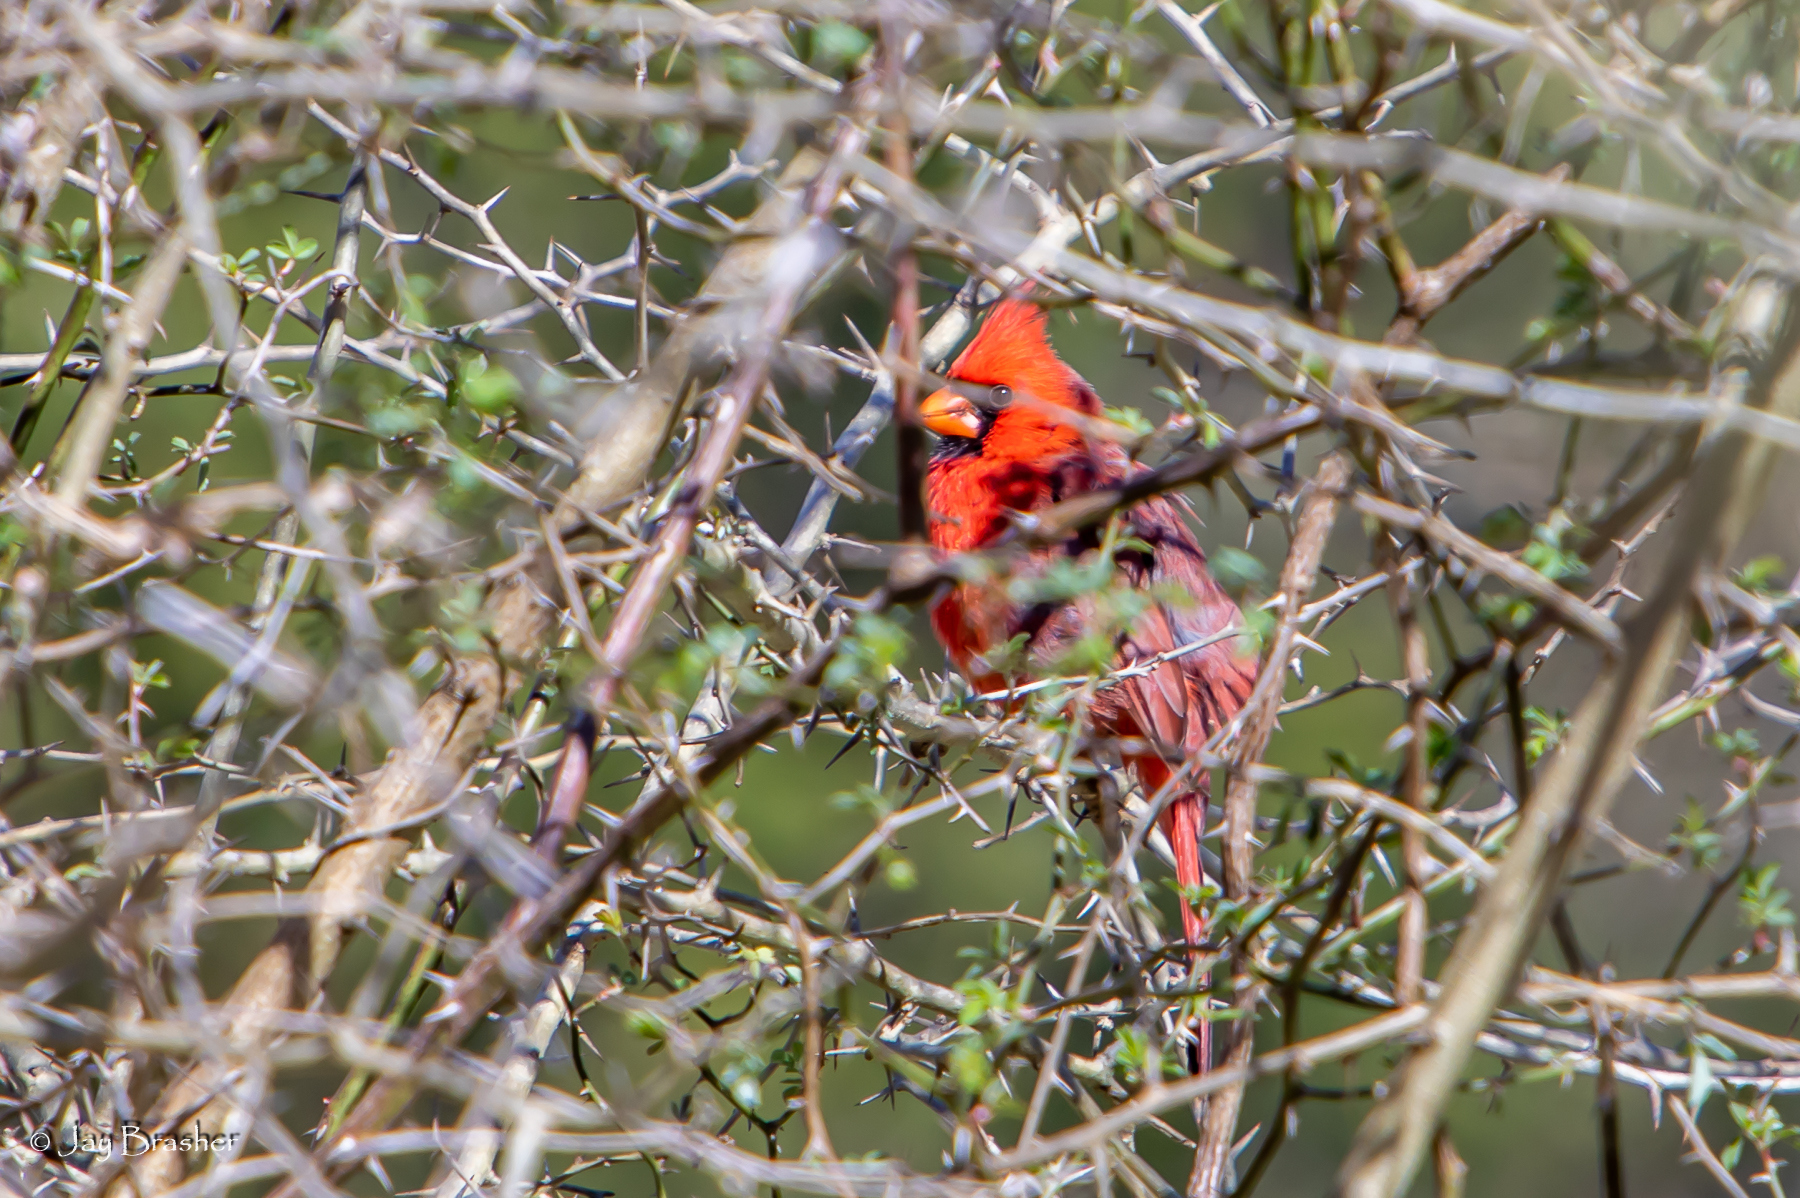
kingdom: Animalia
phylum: Chordata
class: Aves
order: Passeriformes
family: Cardinalidae
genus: Cardinalis
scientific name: Cardinalis cardinalis
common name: Northern cardinal
